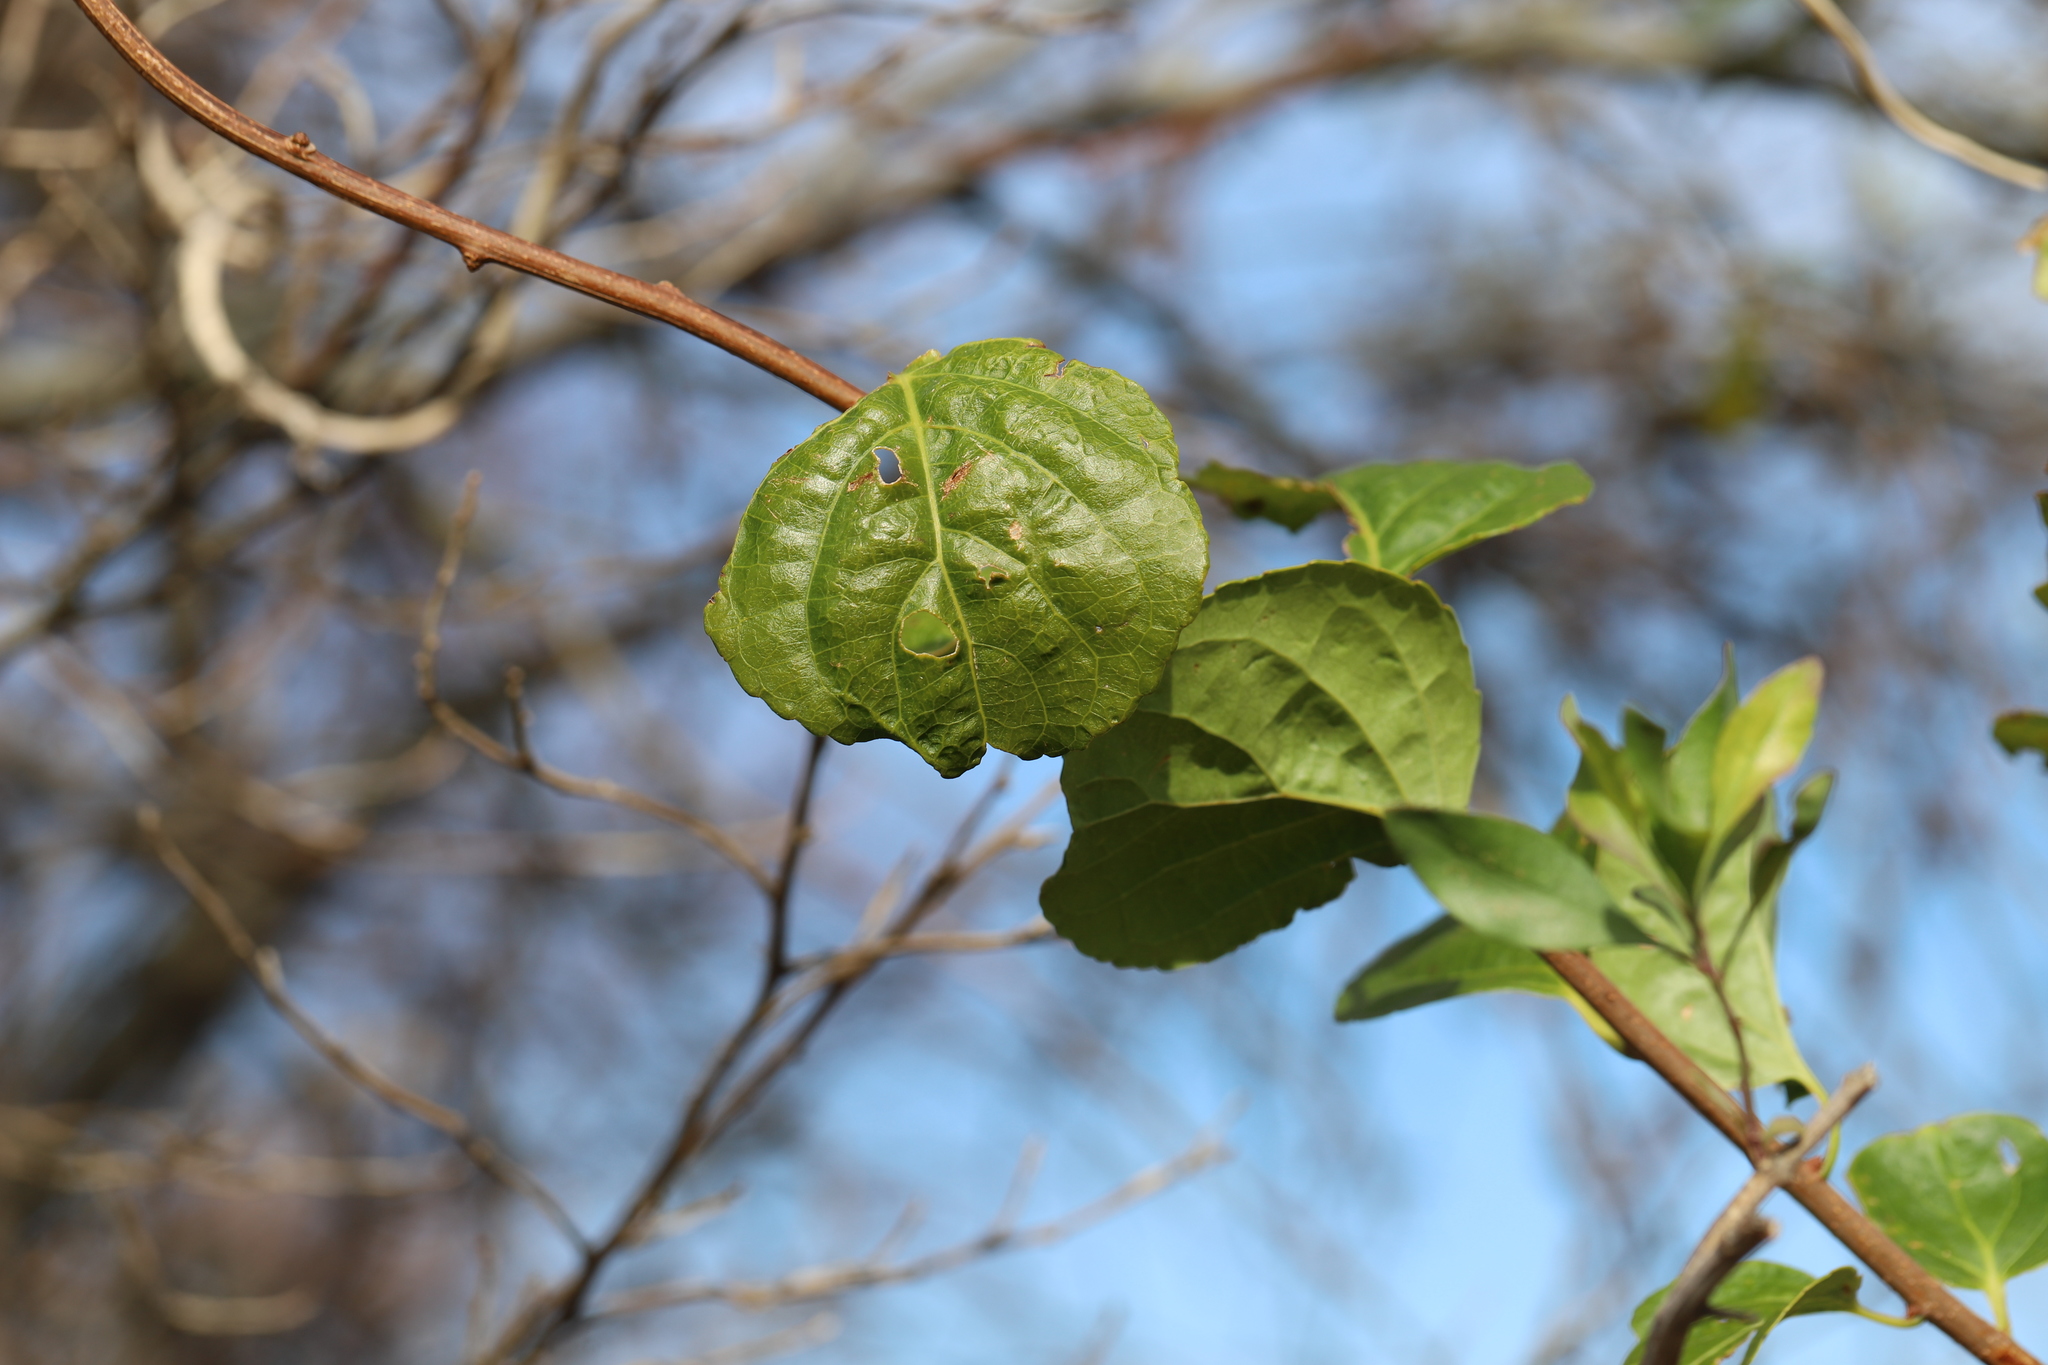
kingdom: Plantae
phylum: Tracheophyta
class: Magnoliopsida
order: Celastrales
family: Celastraceae
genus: Celastrus
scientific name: Celastrus orbiculatus
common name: Oriental bittersweet
